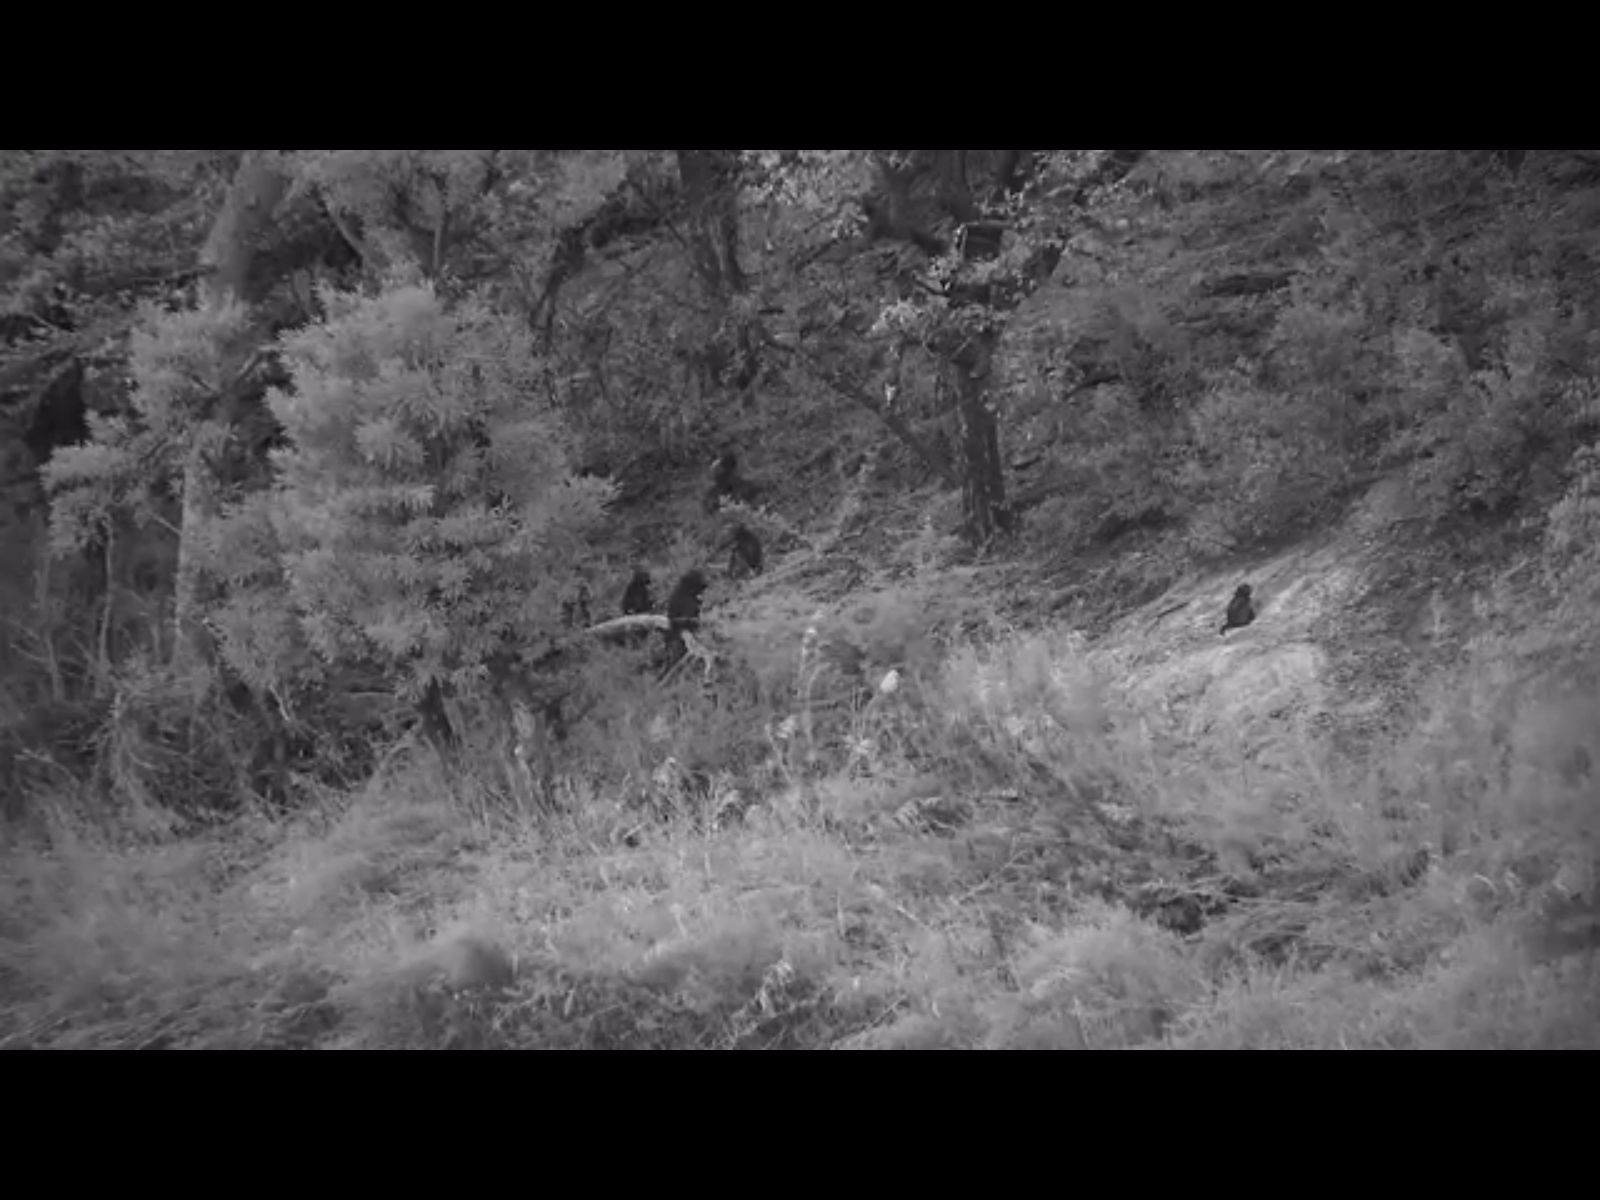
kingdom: Animalia
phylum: Chordata
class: Mammalia
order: Primates
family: Cercopithecidae
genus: Papio
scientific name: Papio ursinus
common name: Chacma baboon
